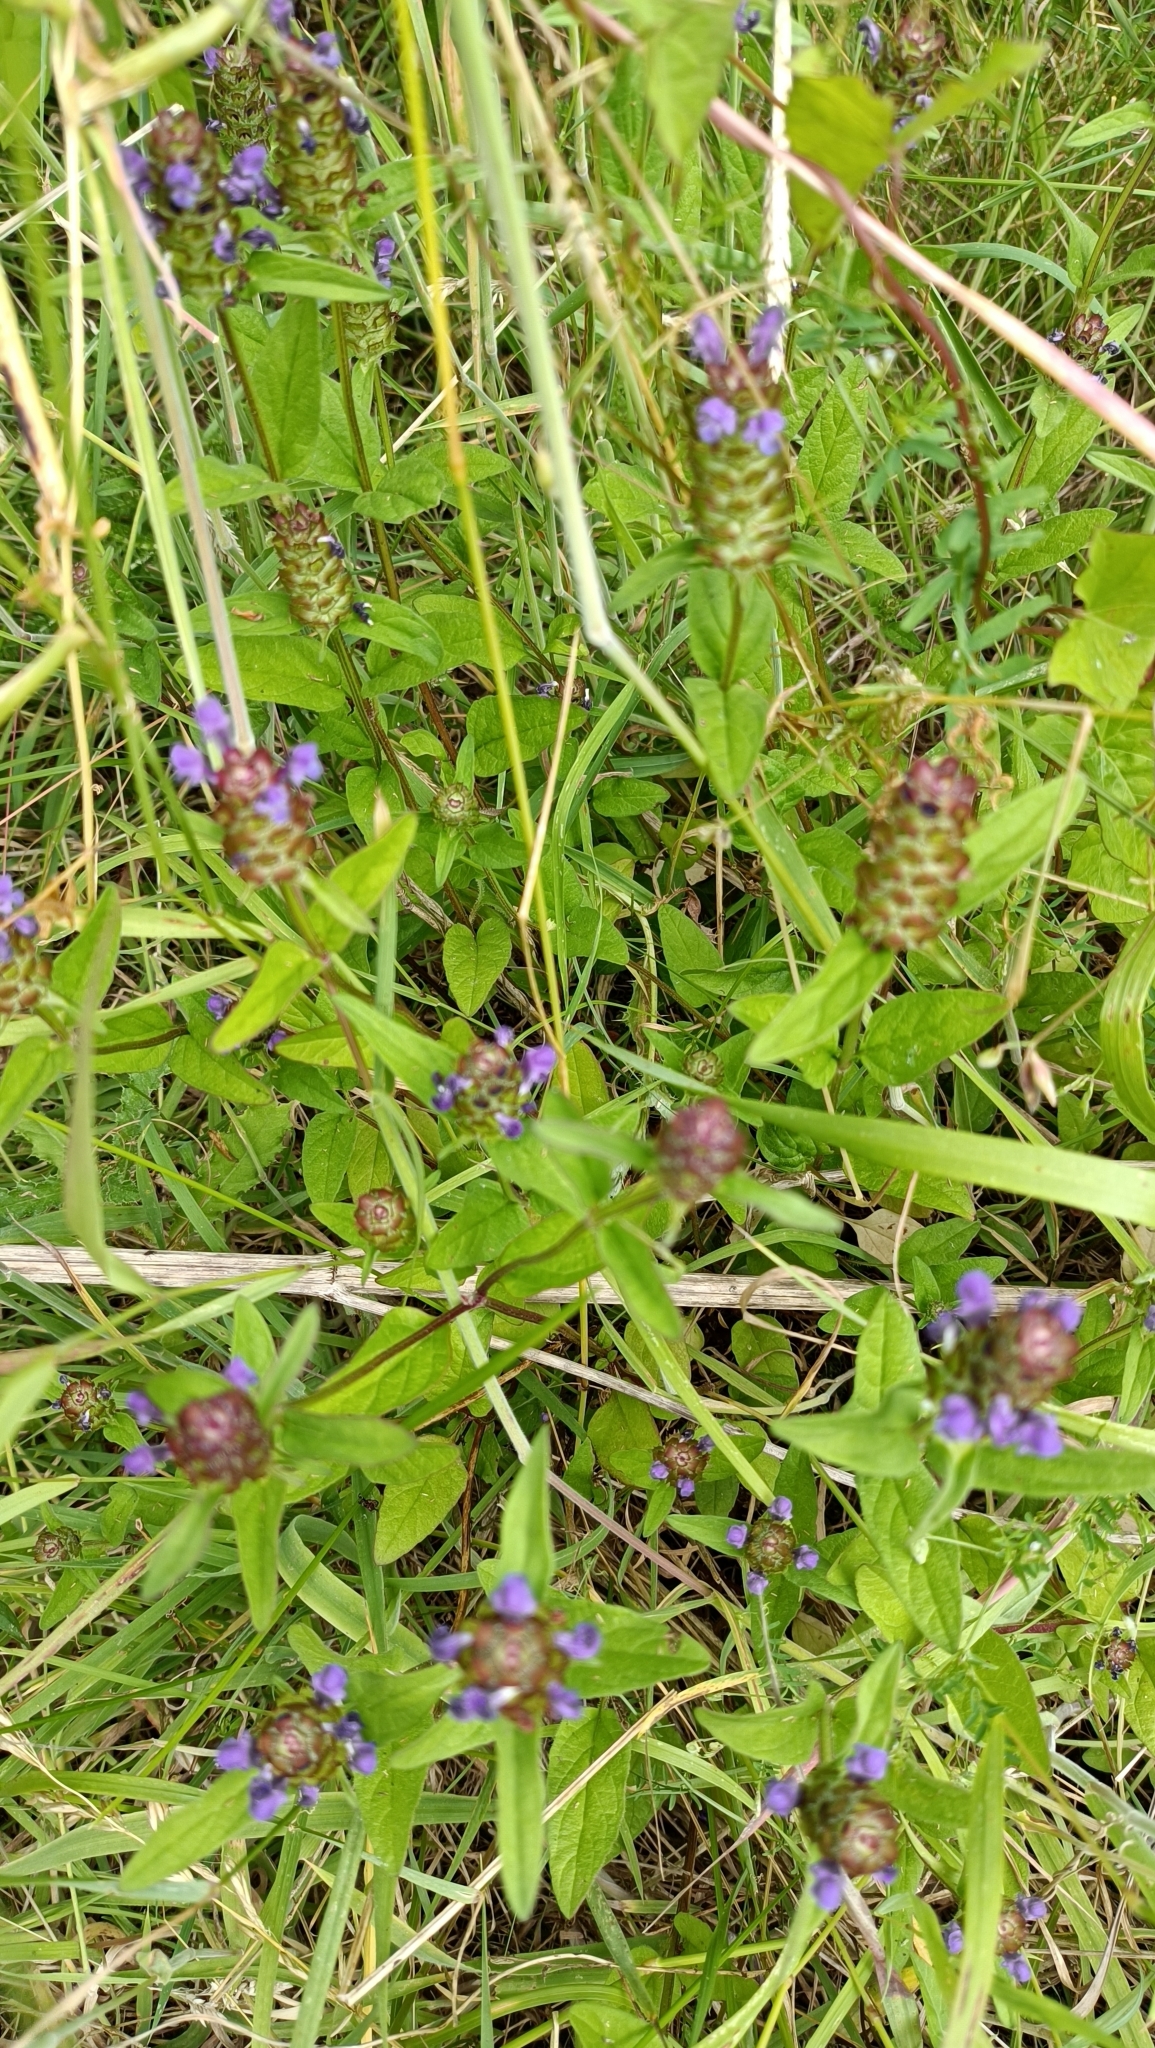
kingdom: Plantae
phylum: Tracheophyta
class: Magnoliopsida
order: Lamiales
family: Lamiaceae
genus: Prunella
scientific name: Prunella vulgaris
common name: Heal-all
